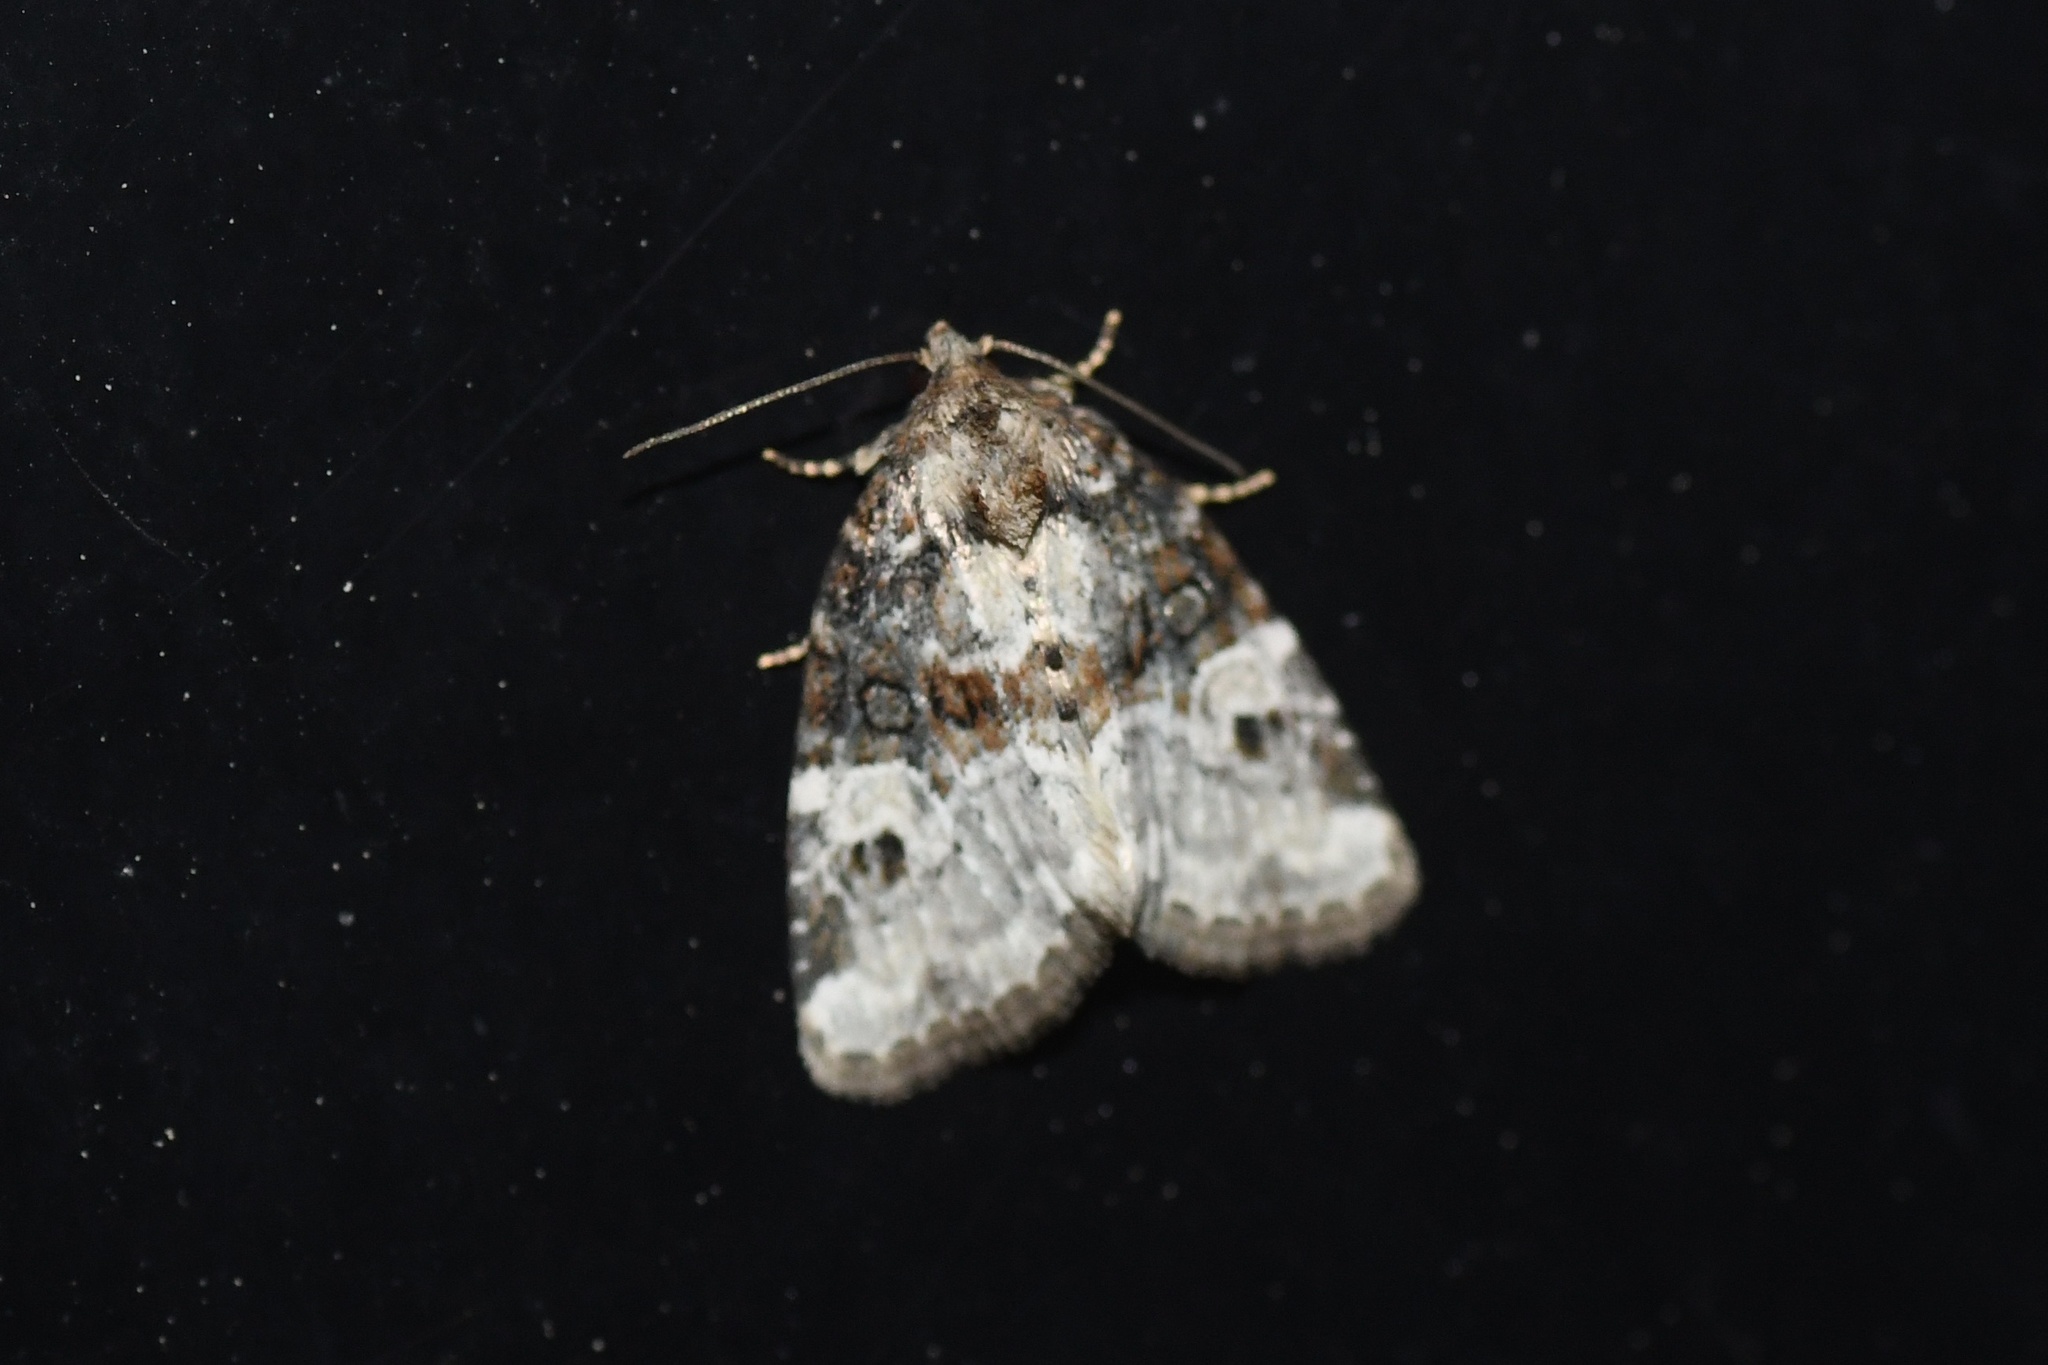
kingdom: Animalia
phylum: Arthropoda
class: Insecta
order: Lepidoptera
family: Noctuidae
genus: Neoligia
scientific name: Neoligia crytora
